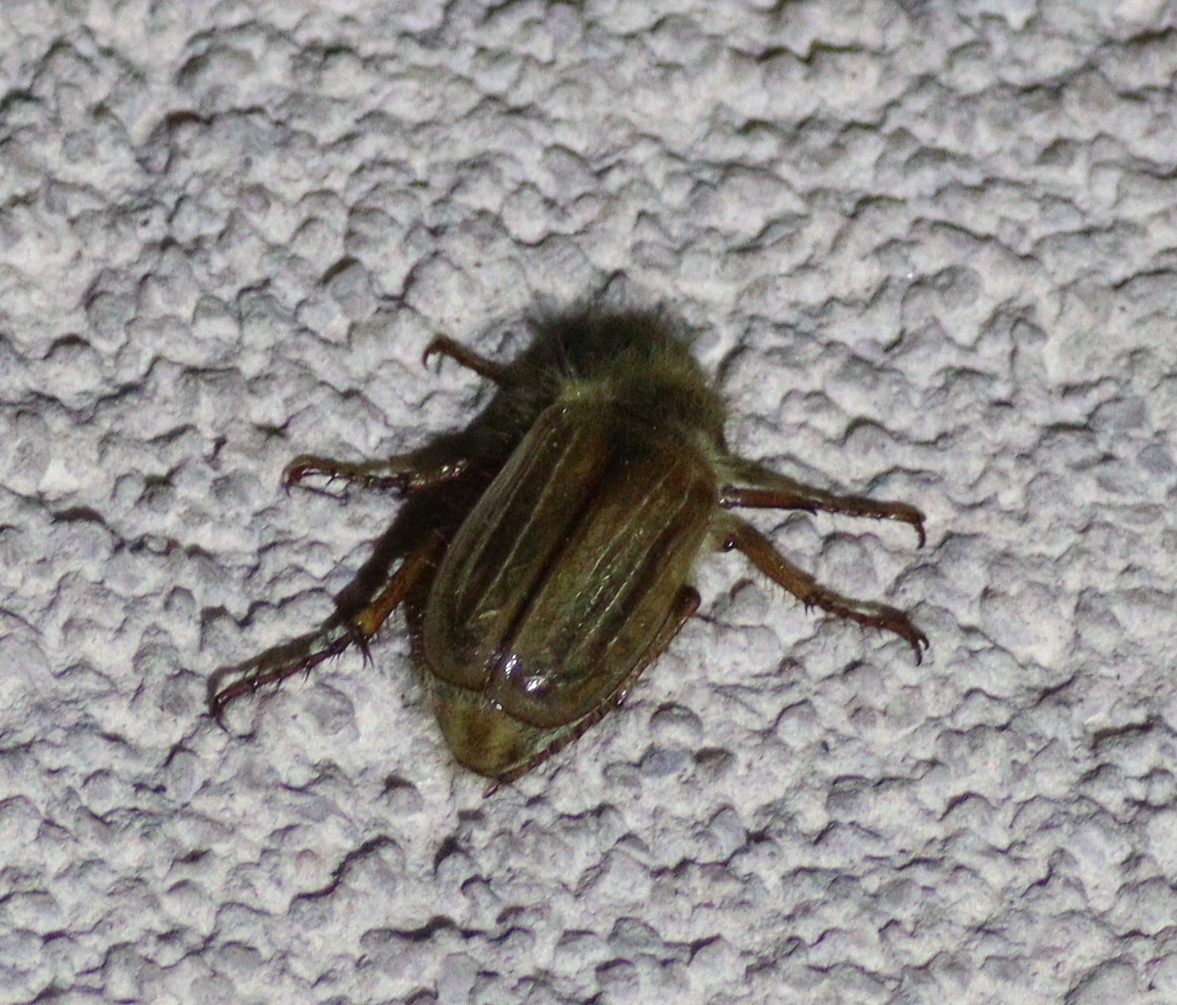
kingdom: Animalia
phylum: Arthropoda
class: Insecta
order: Coleoptera
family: Scarabaeidae
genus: Amphimallon
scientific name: Amphimallon solstitiale
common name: Summer chafer
